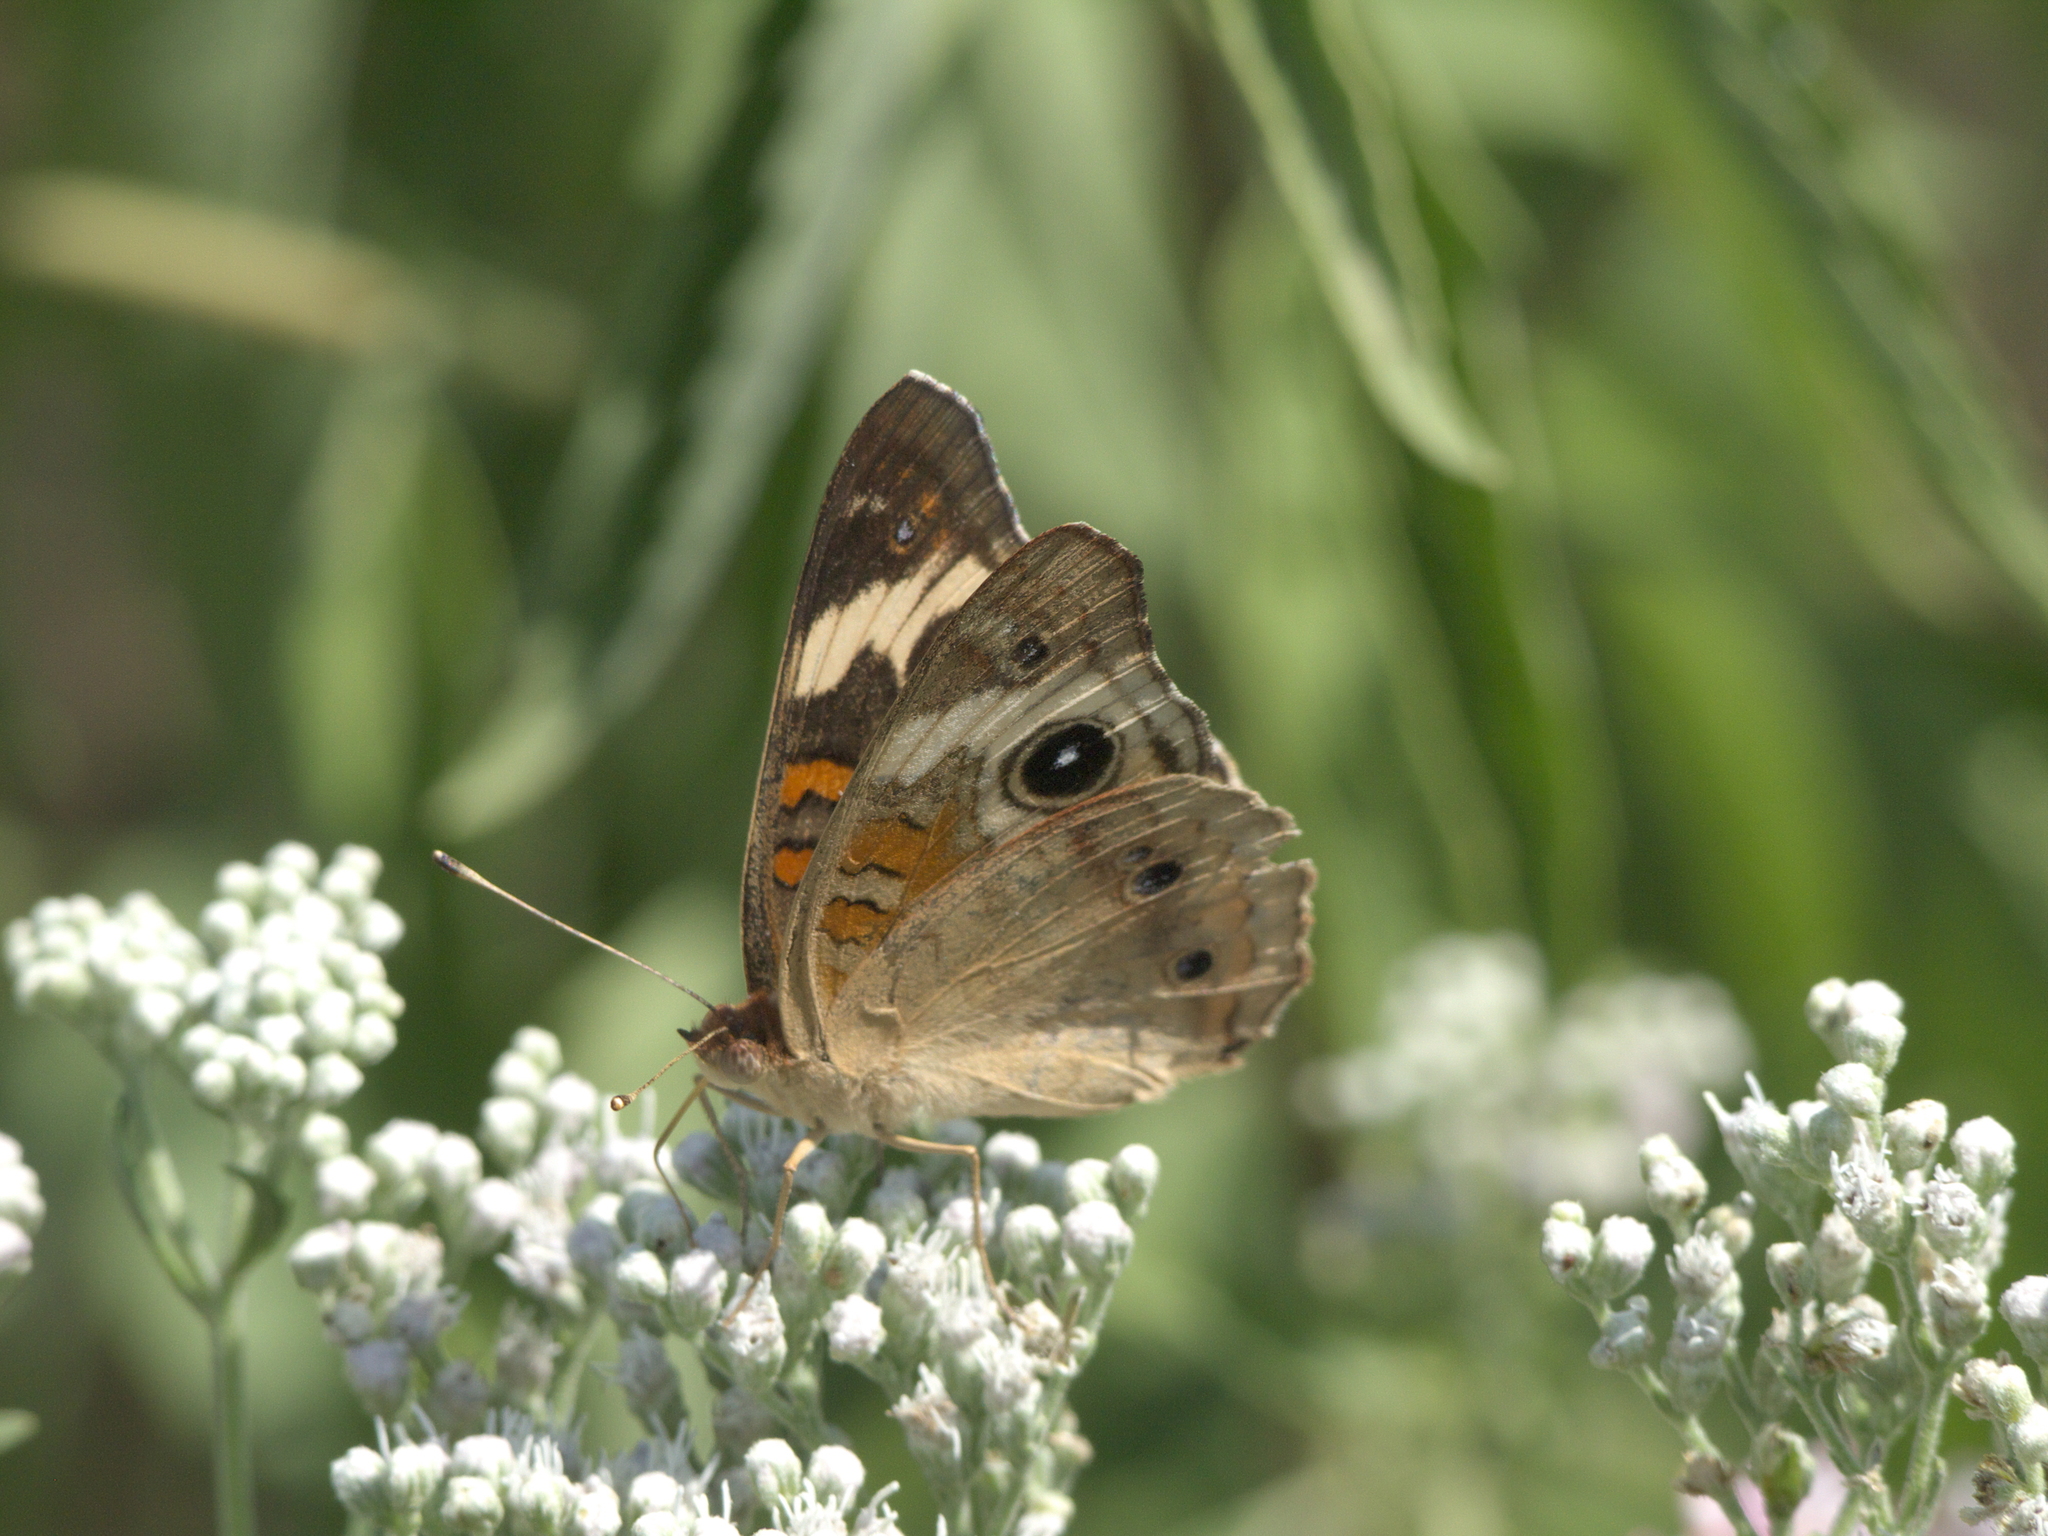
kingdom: Animalia
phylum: Arthropoda
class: Insecta
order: Lepidoptera
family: Nymphalidae
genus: Junonia
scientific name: Junonia coenia
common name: Common buckeye
